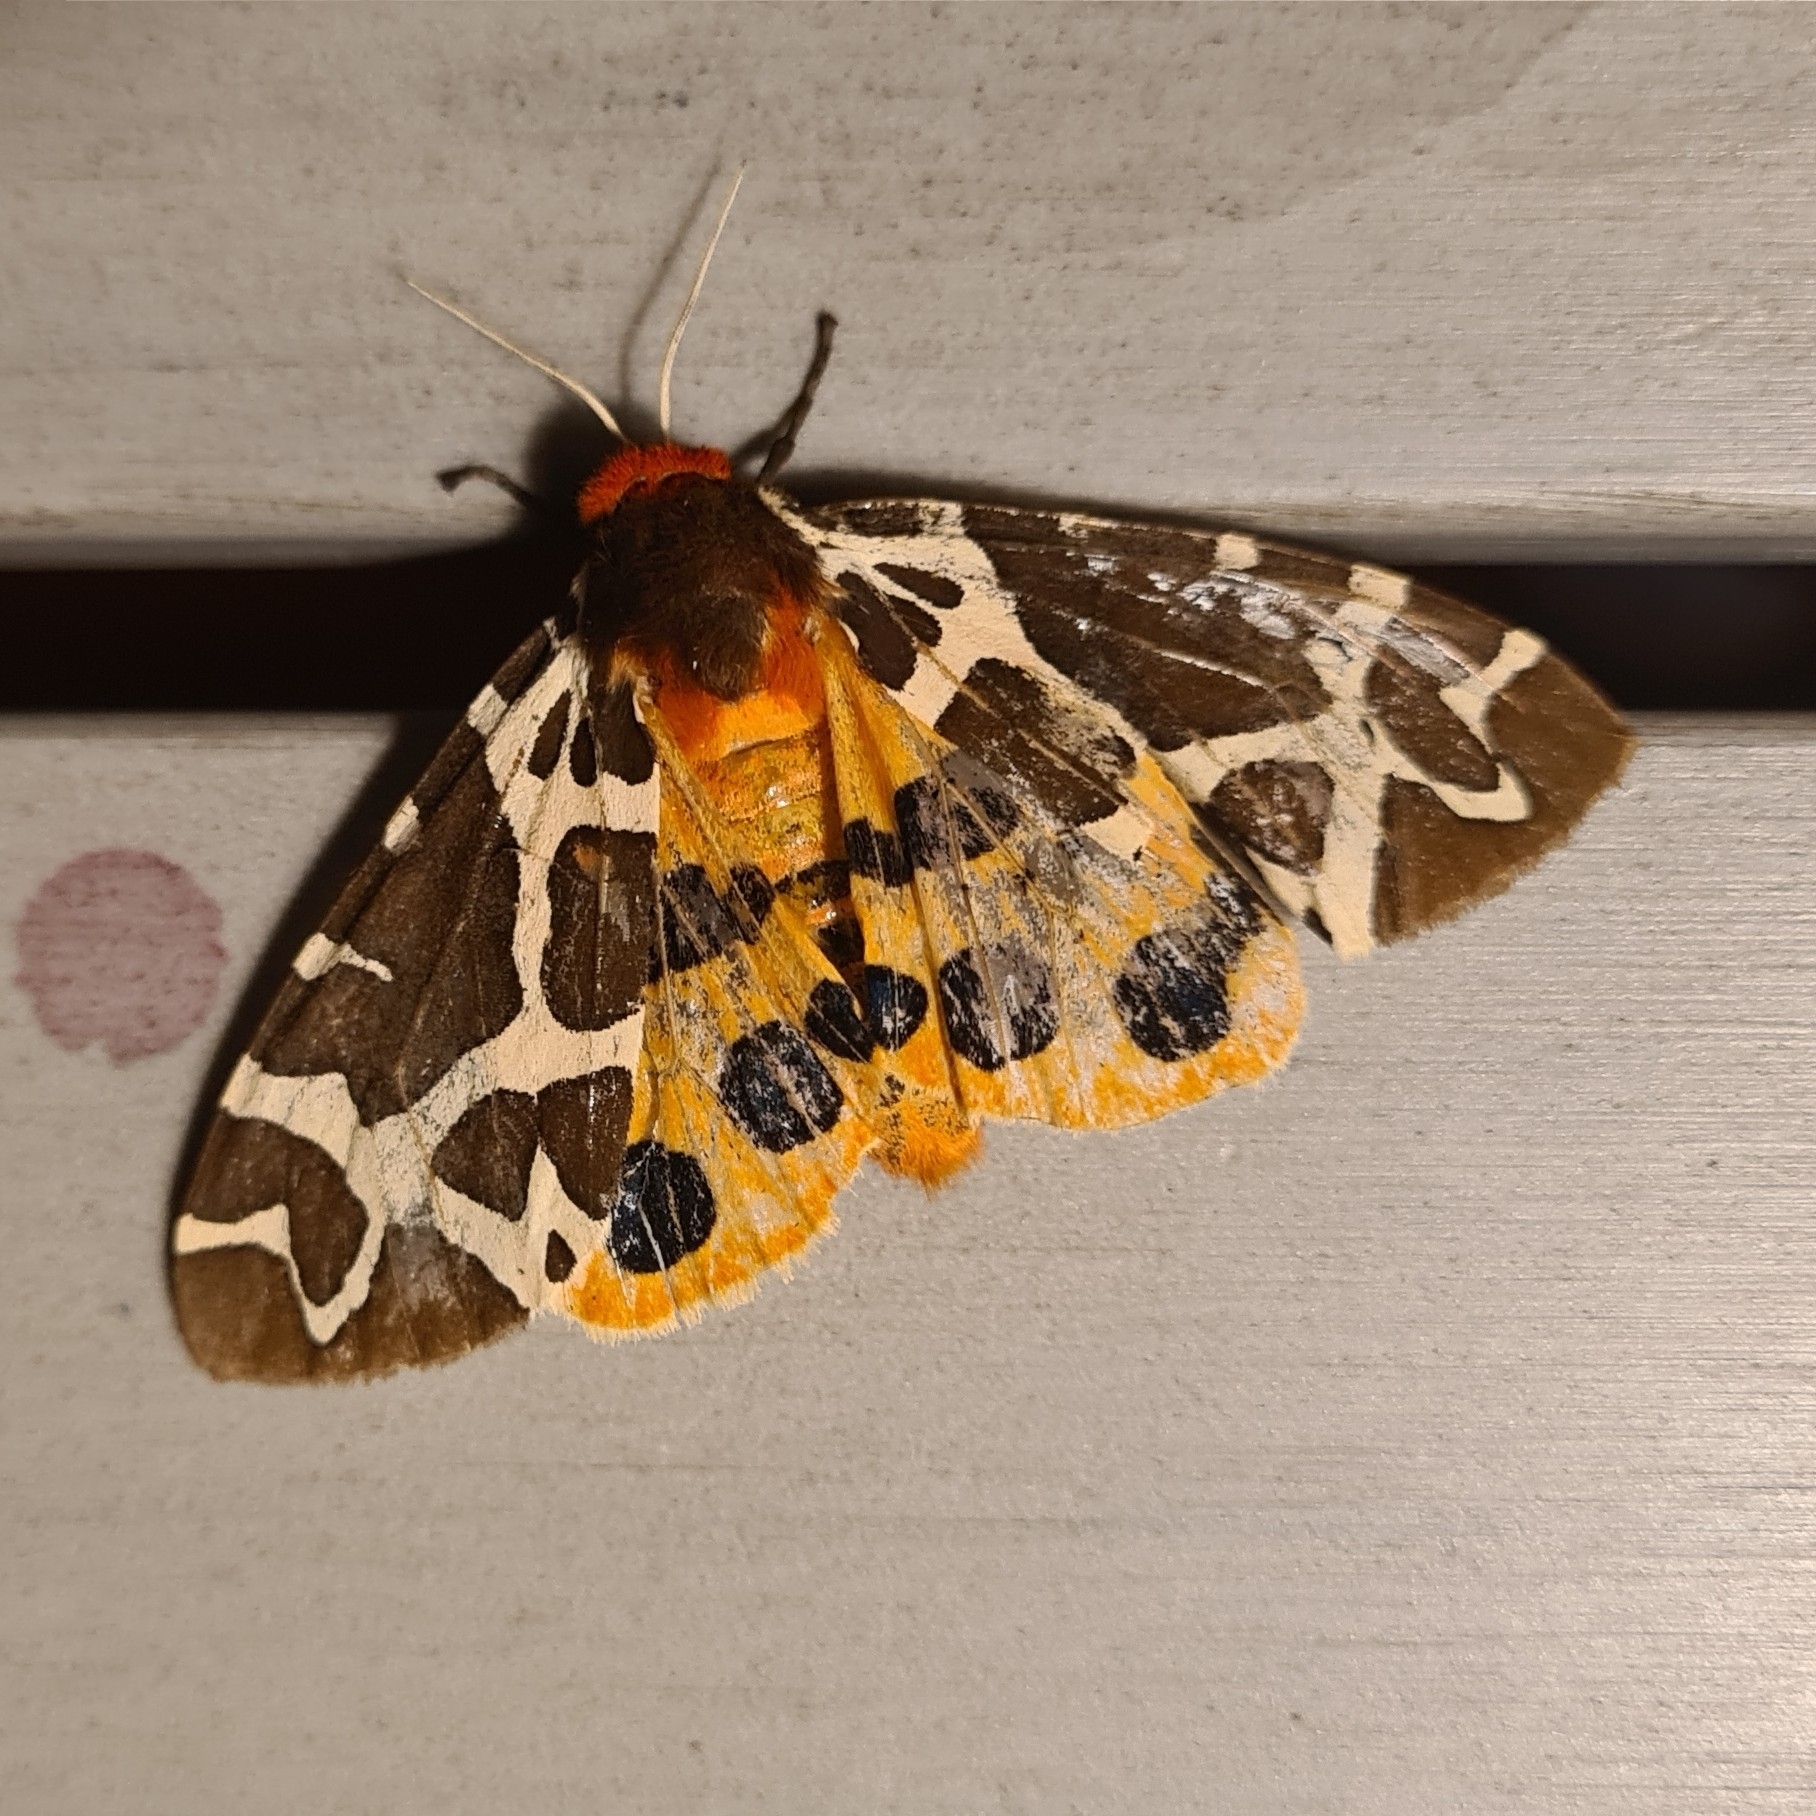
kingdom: Animalia
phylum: Arthropoda
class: Insecta
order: Lepidoptera
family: Erebidae
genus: Arctia
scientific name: Arctia caja
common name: Garden tiger
